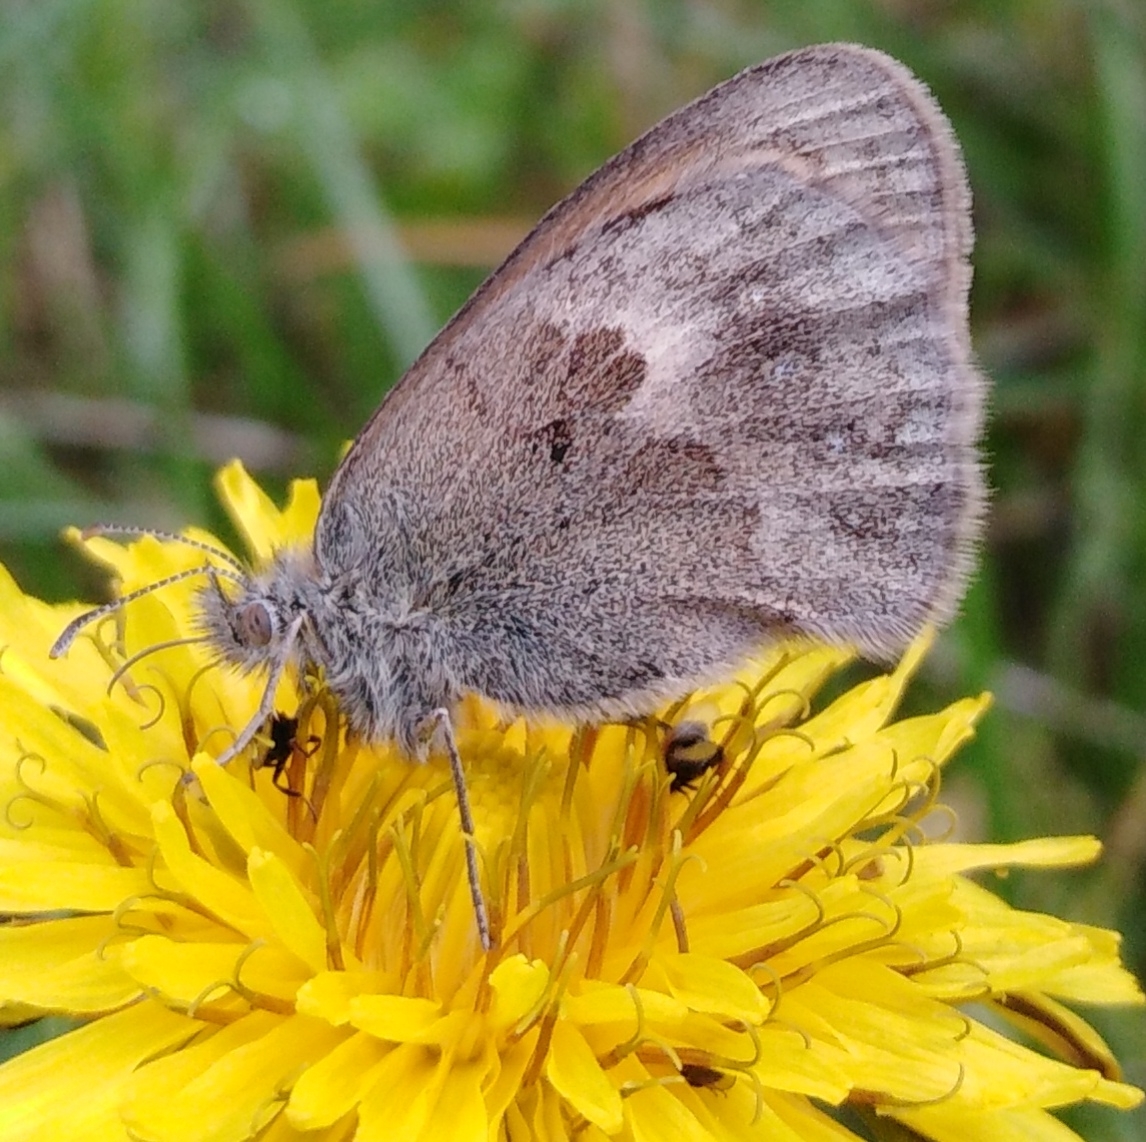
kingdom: Animalia
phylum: Arthropoda
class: Insecta
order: Lepidoptera
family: Nymphalidae
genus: Coenonympha
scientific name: Coenonympha pamphilus
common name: Small heath
